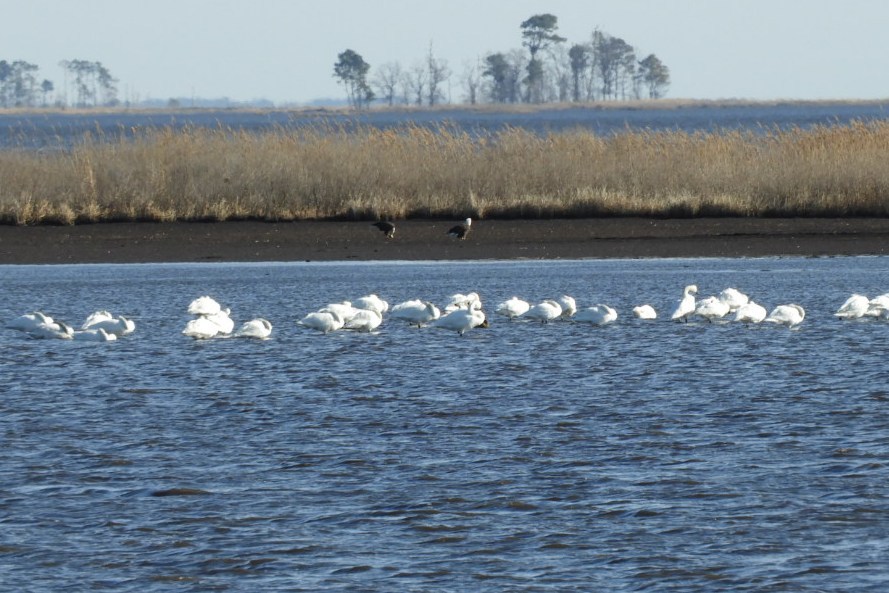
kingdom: Animalia
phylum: Chordata
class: Aves
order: Accipitriformes
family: Accipitridae
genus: Haliaeetus
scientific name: Haliaeetus leucocephalus
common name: Bald eagle
